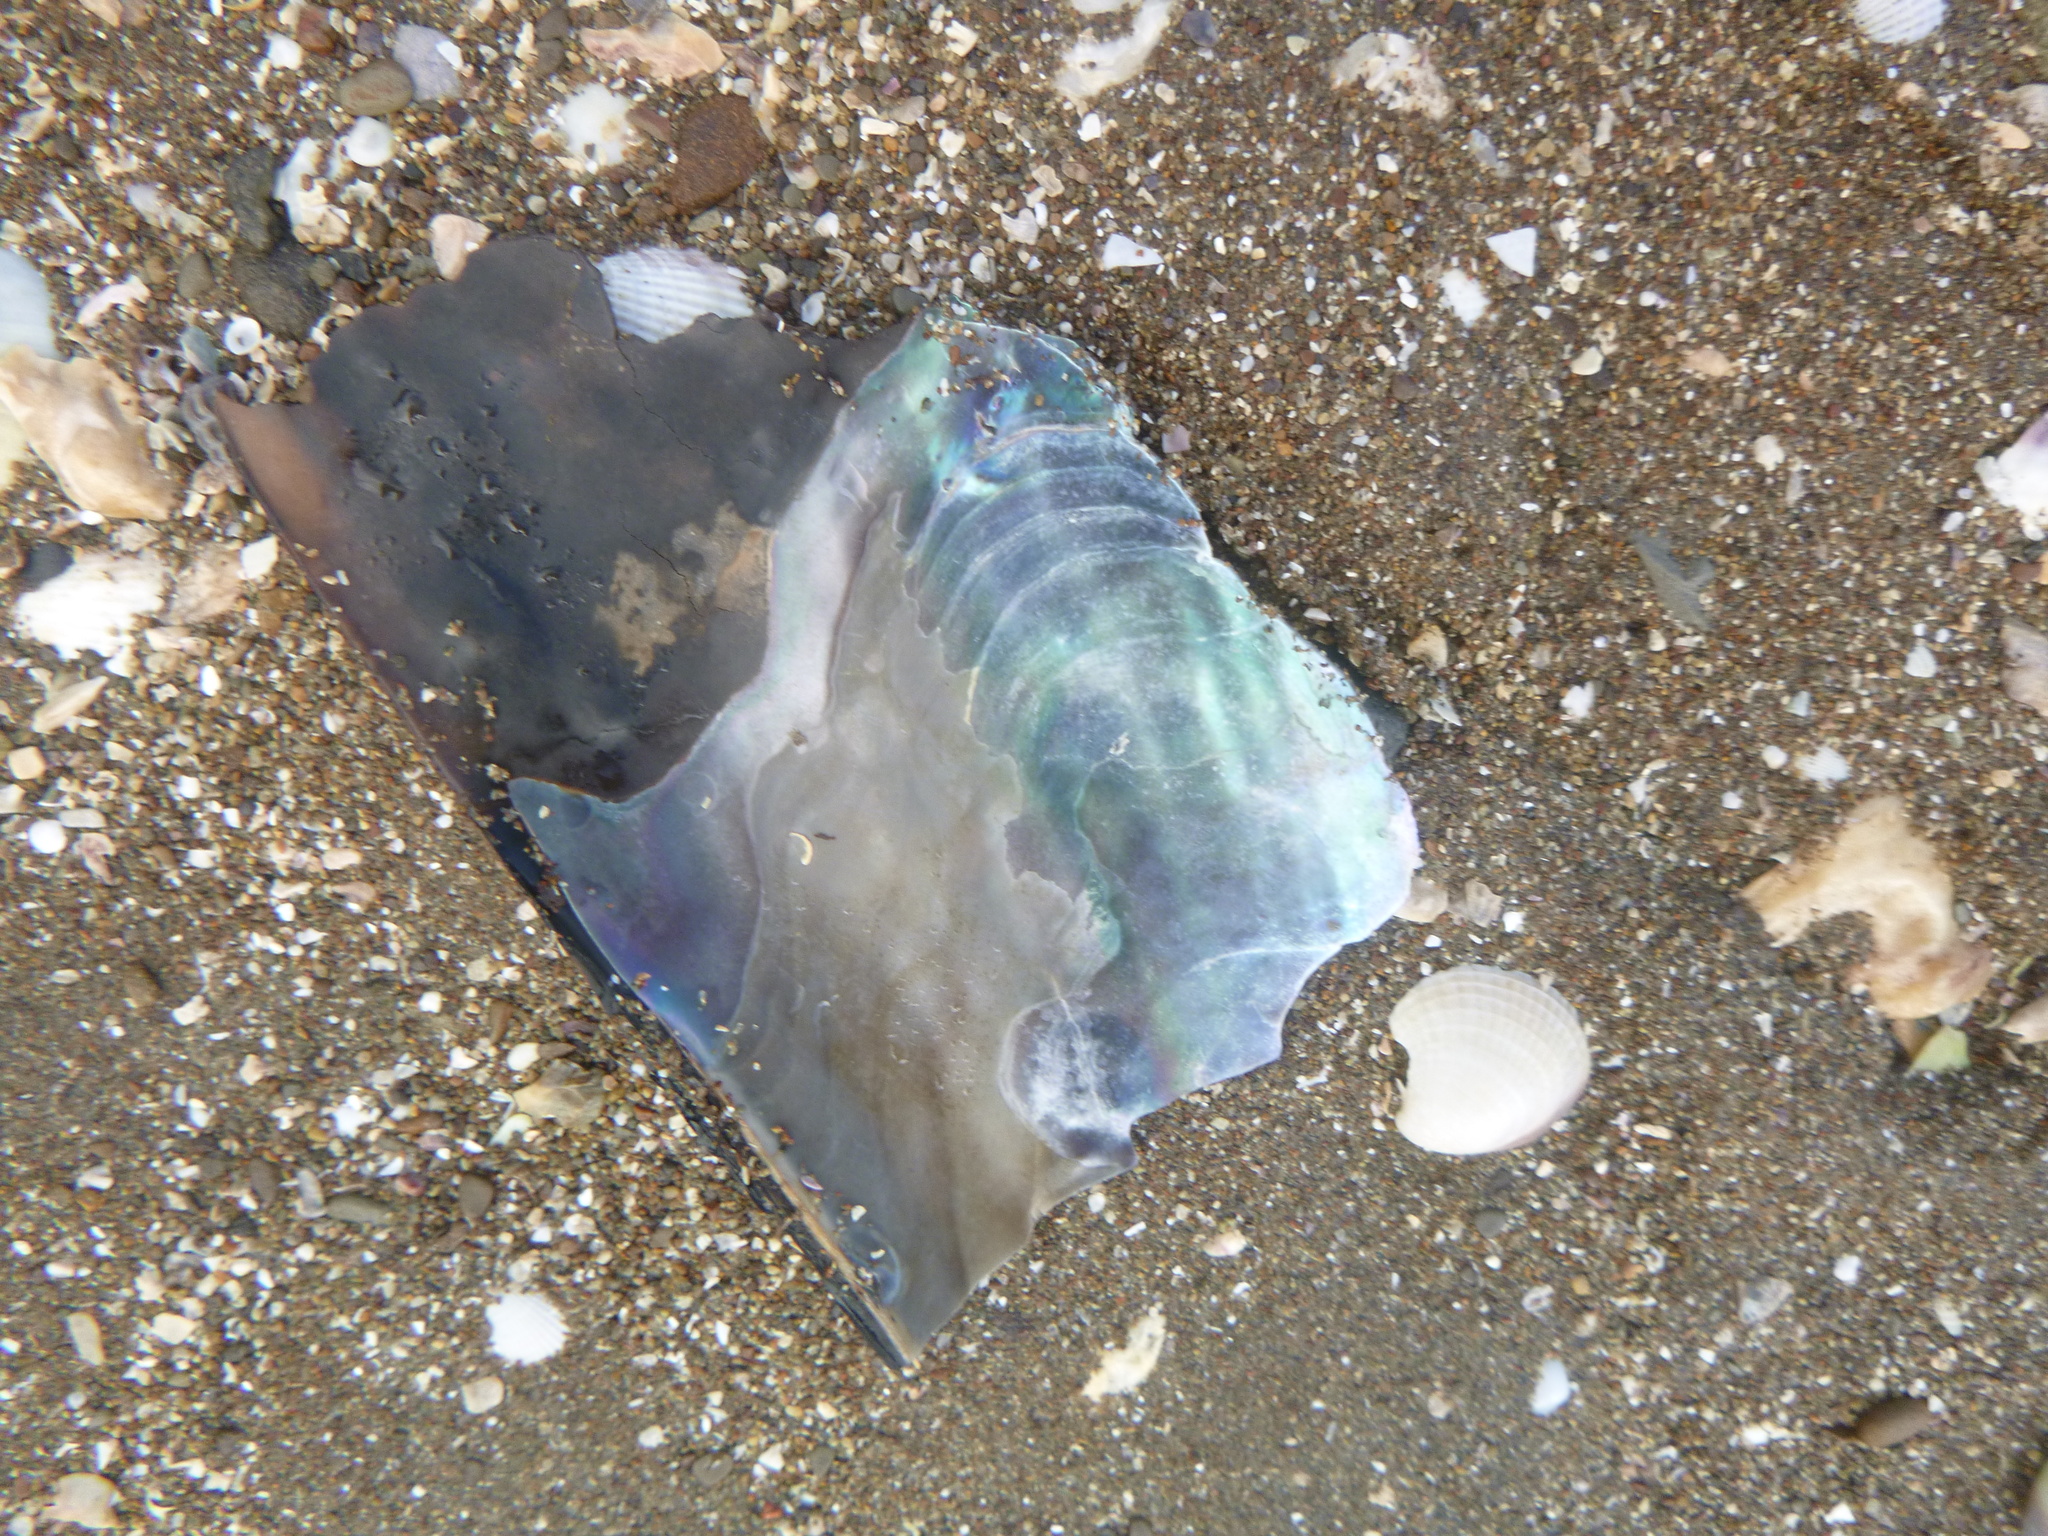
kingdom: Animalia
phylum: Mollusca
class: Bivalvia
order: Ostreida
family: Pinnidae
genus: Atrina
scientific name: Atrina zelandica
